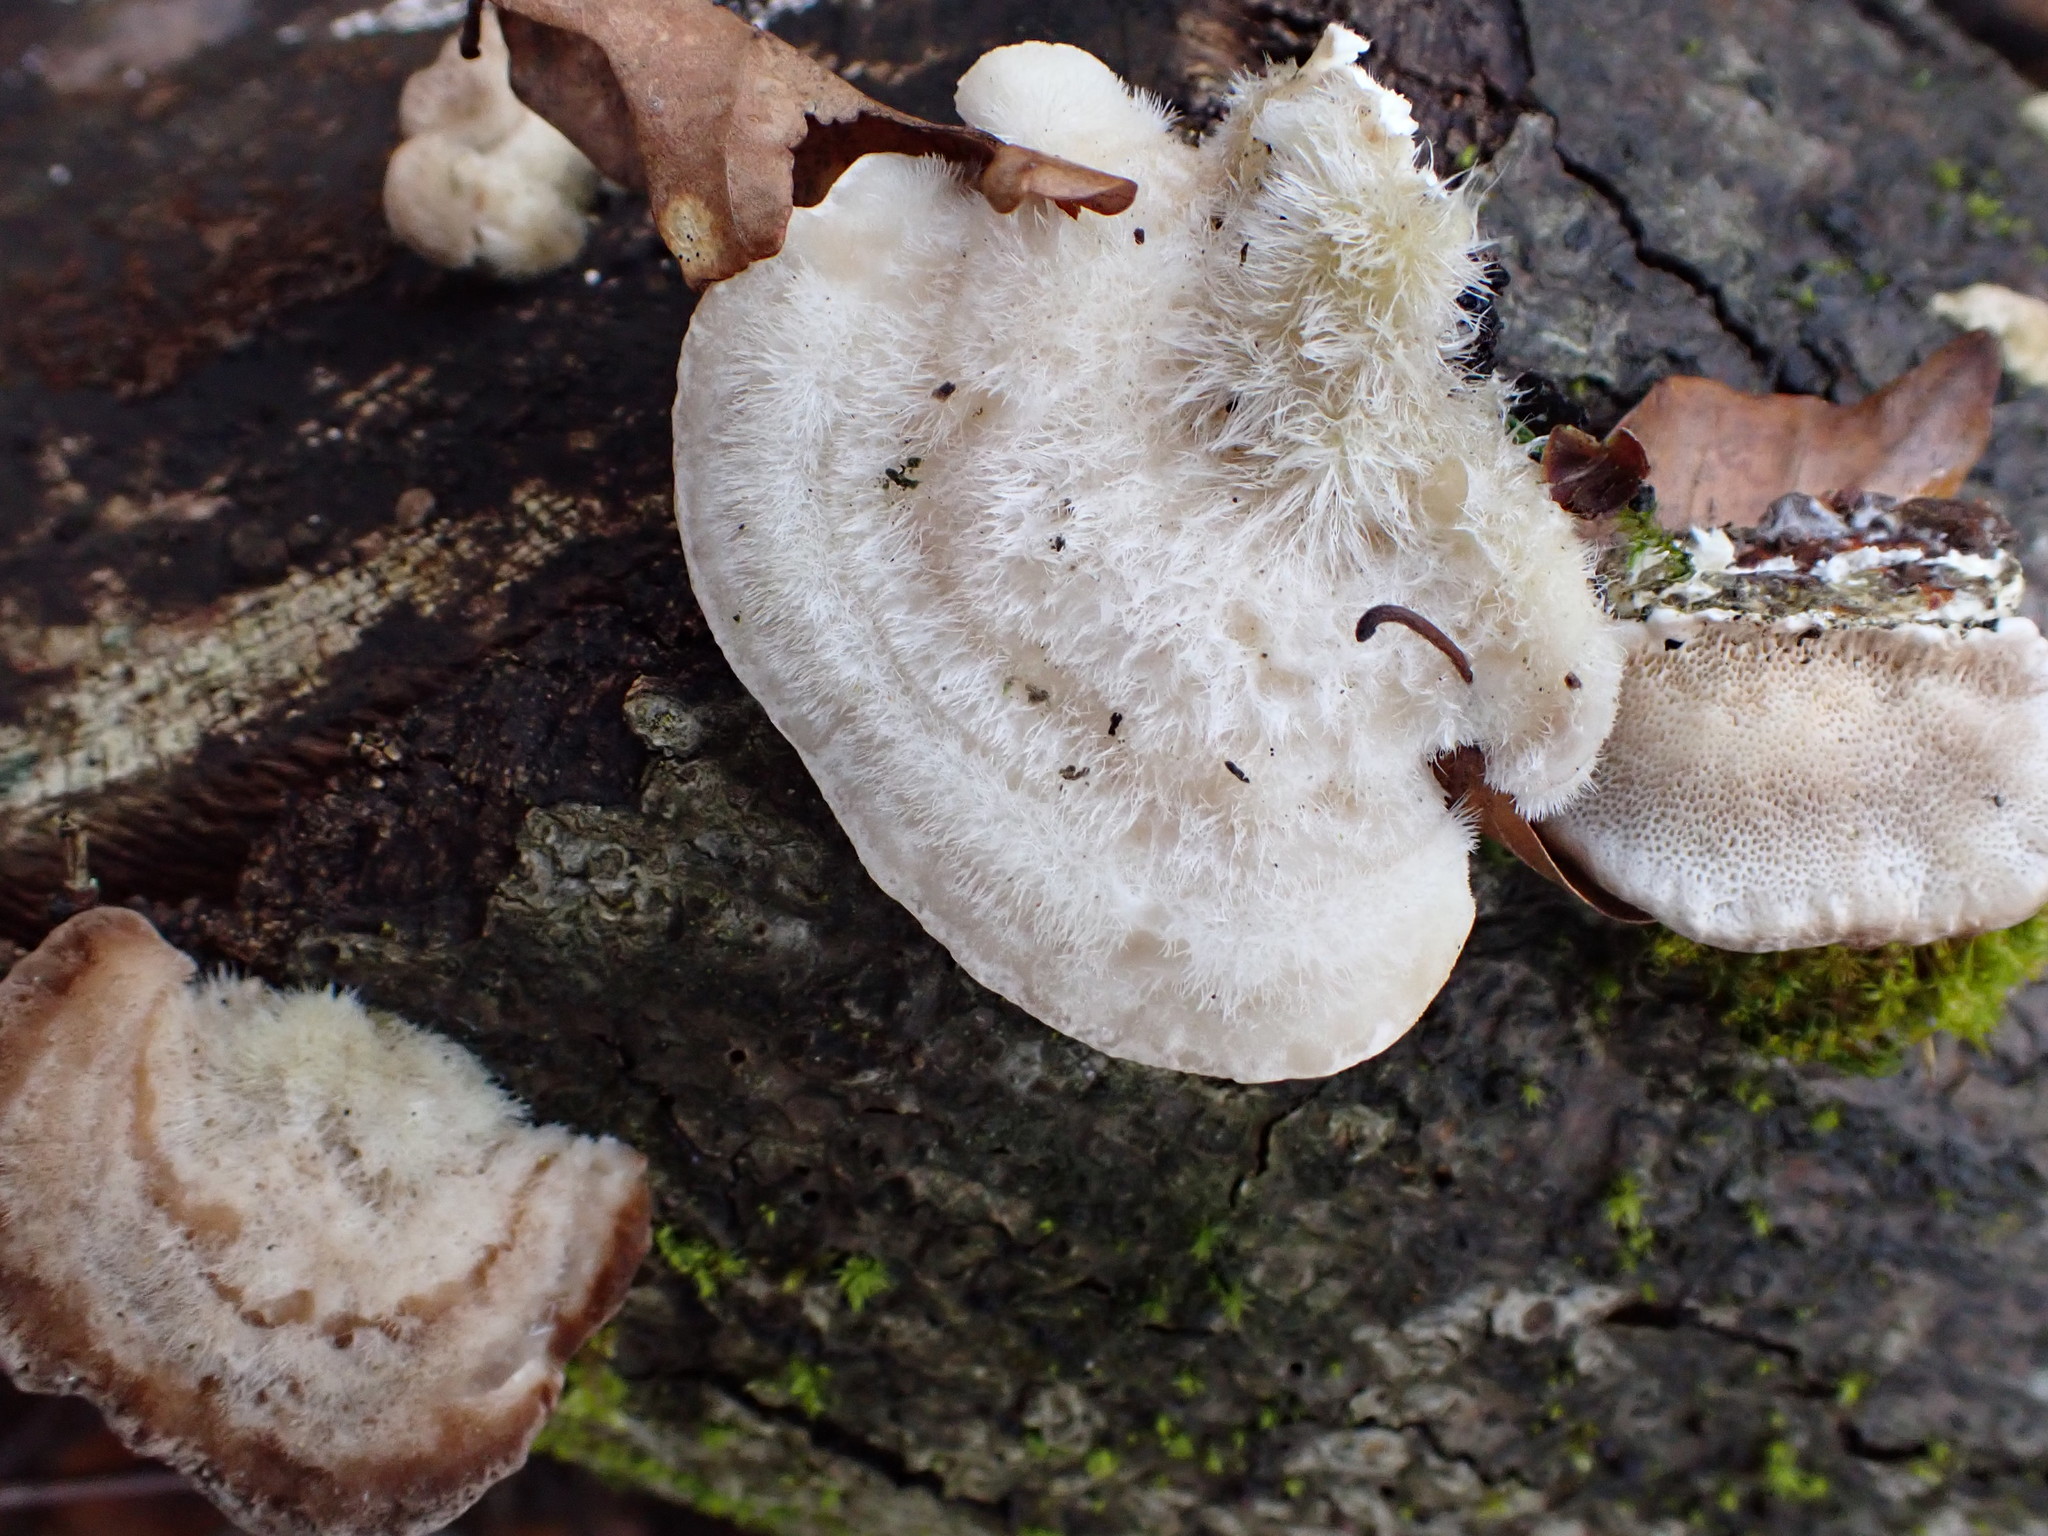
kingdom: Fungi
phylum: Basidiomycota
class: Agaricomycetes
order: Polyporales
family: Polyporaceae
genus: Trametes
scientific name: Trametes hirsuta
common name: Hairy bracket
